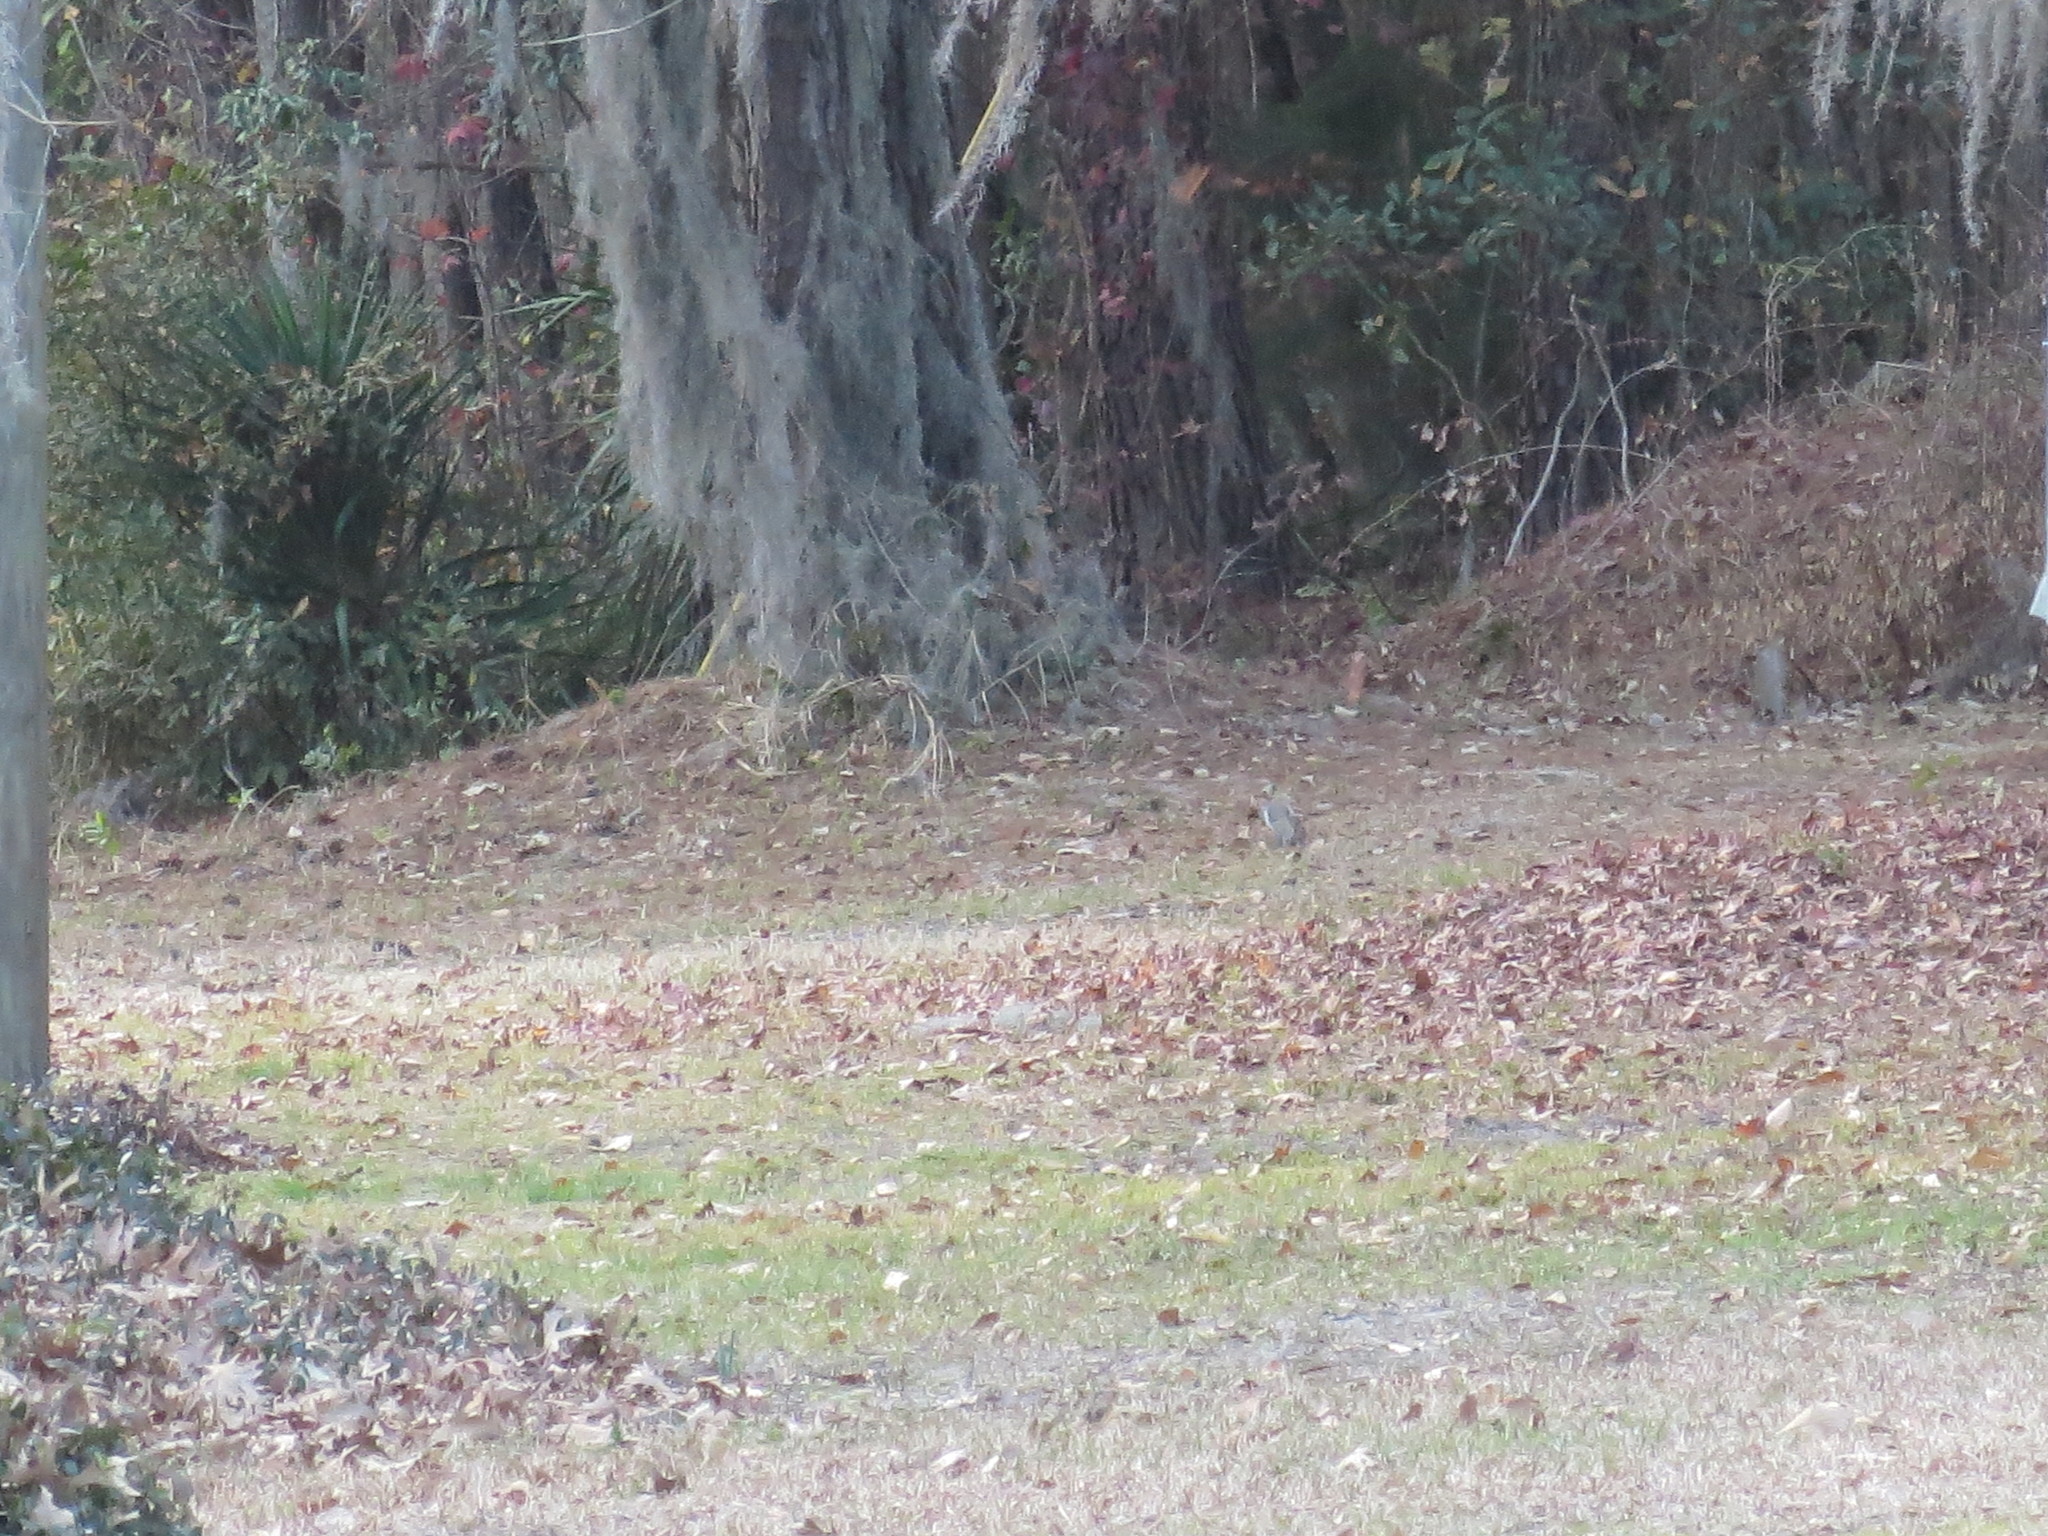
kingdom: Animalia
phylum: Chordata
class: Mammalia
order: Rodentia
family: Sciuridae
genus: Sciurus
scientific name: Sciurus carolinensis
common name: Eastern gray squirrel
